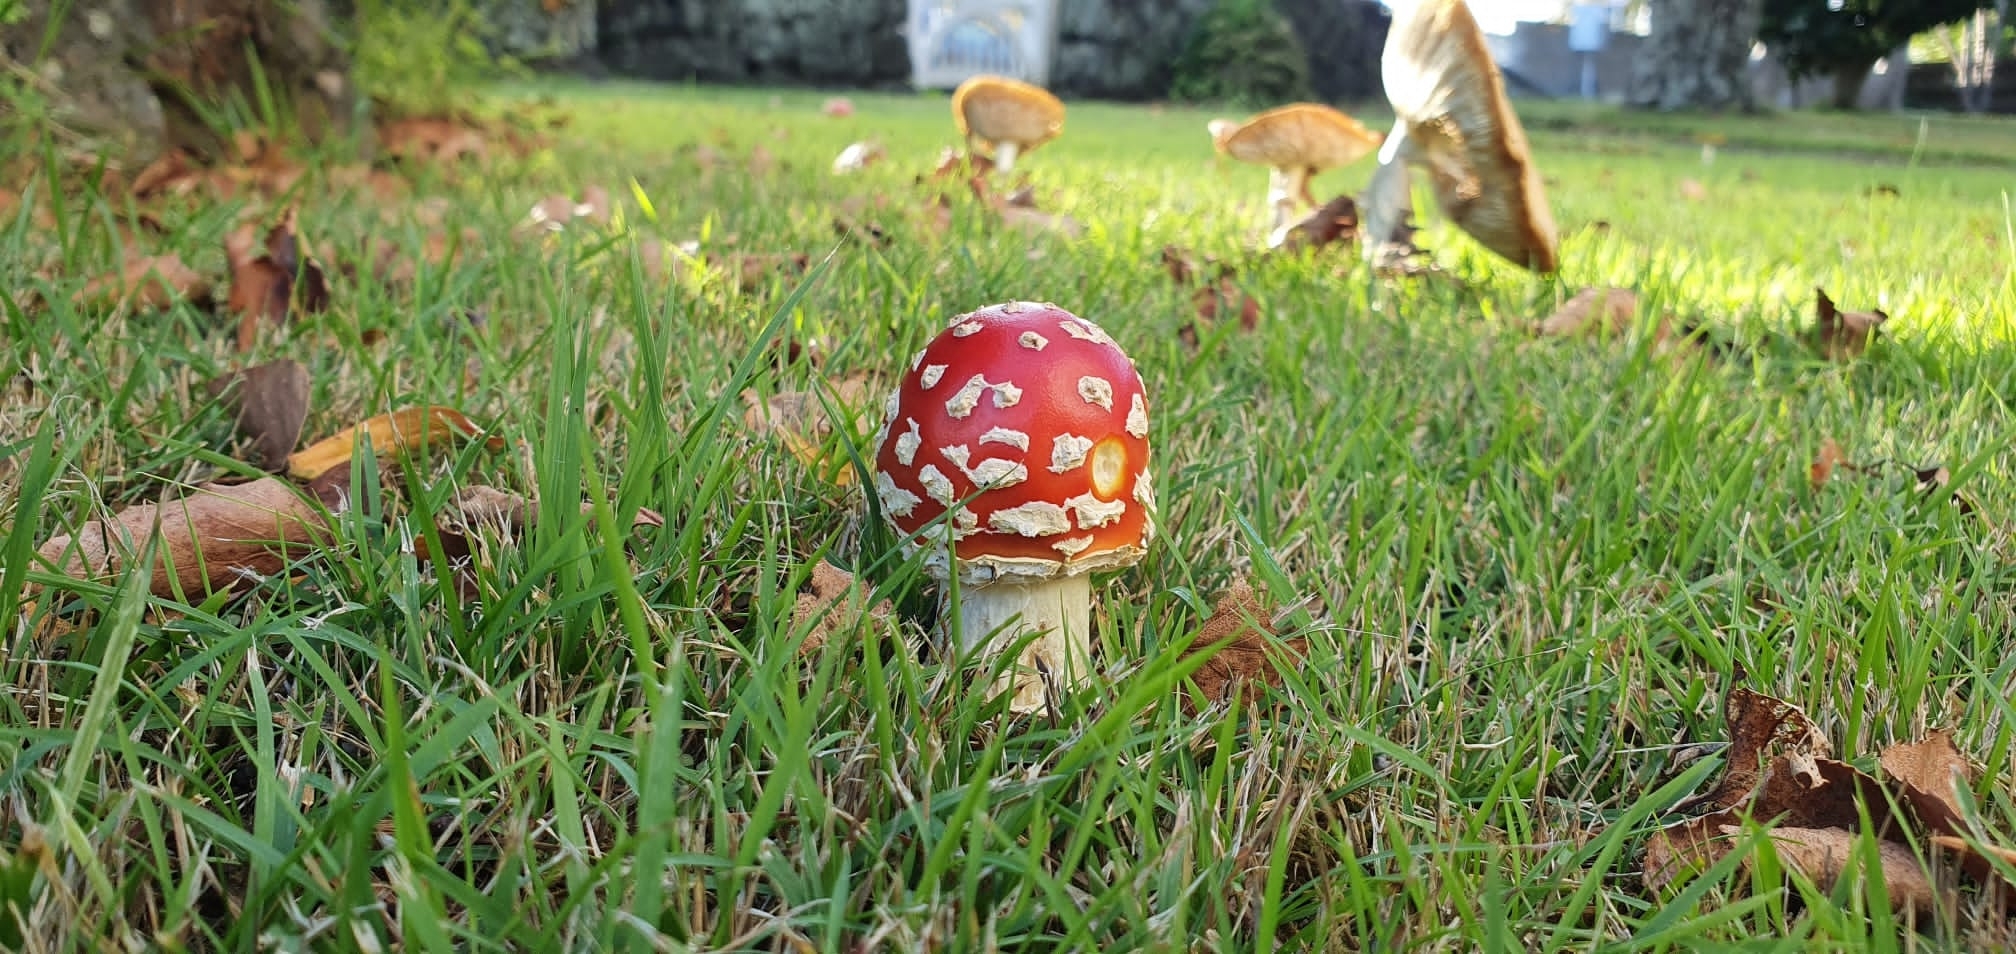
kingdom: Fungi
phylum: Basidiomycota
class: Agaricomycetes
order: Agaricales
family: Amanitaceae
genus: Amanita
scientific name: Amanita muscaria
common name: Fly agaric
